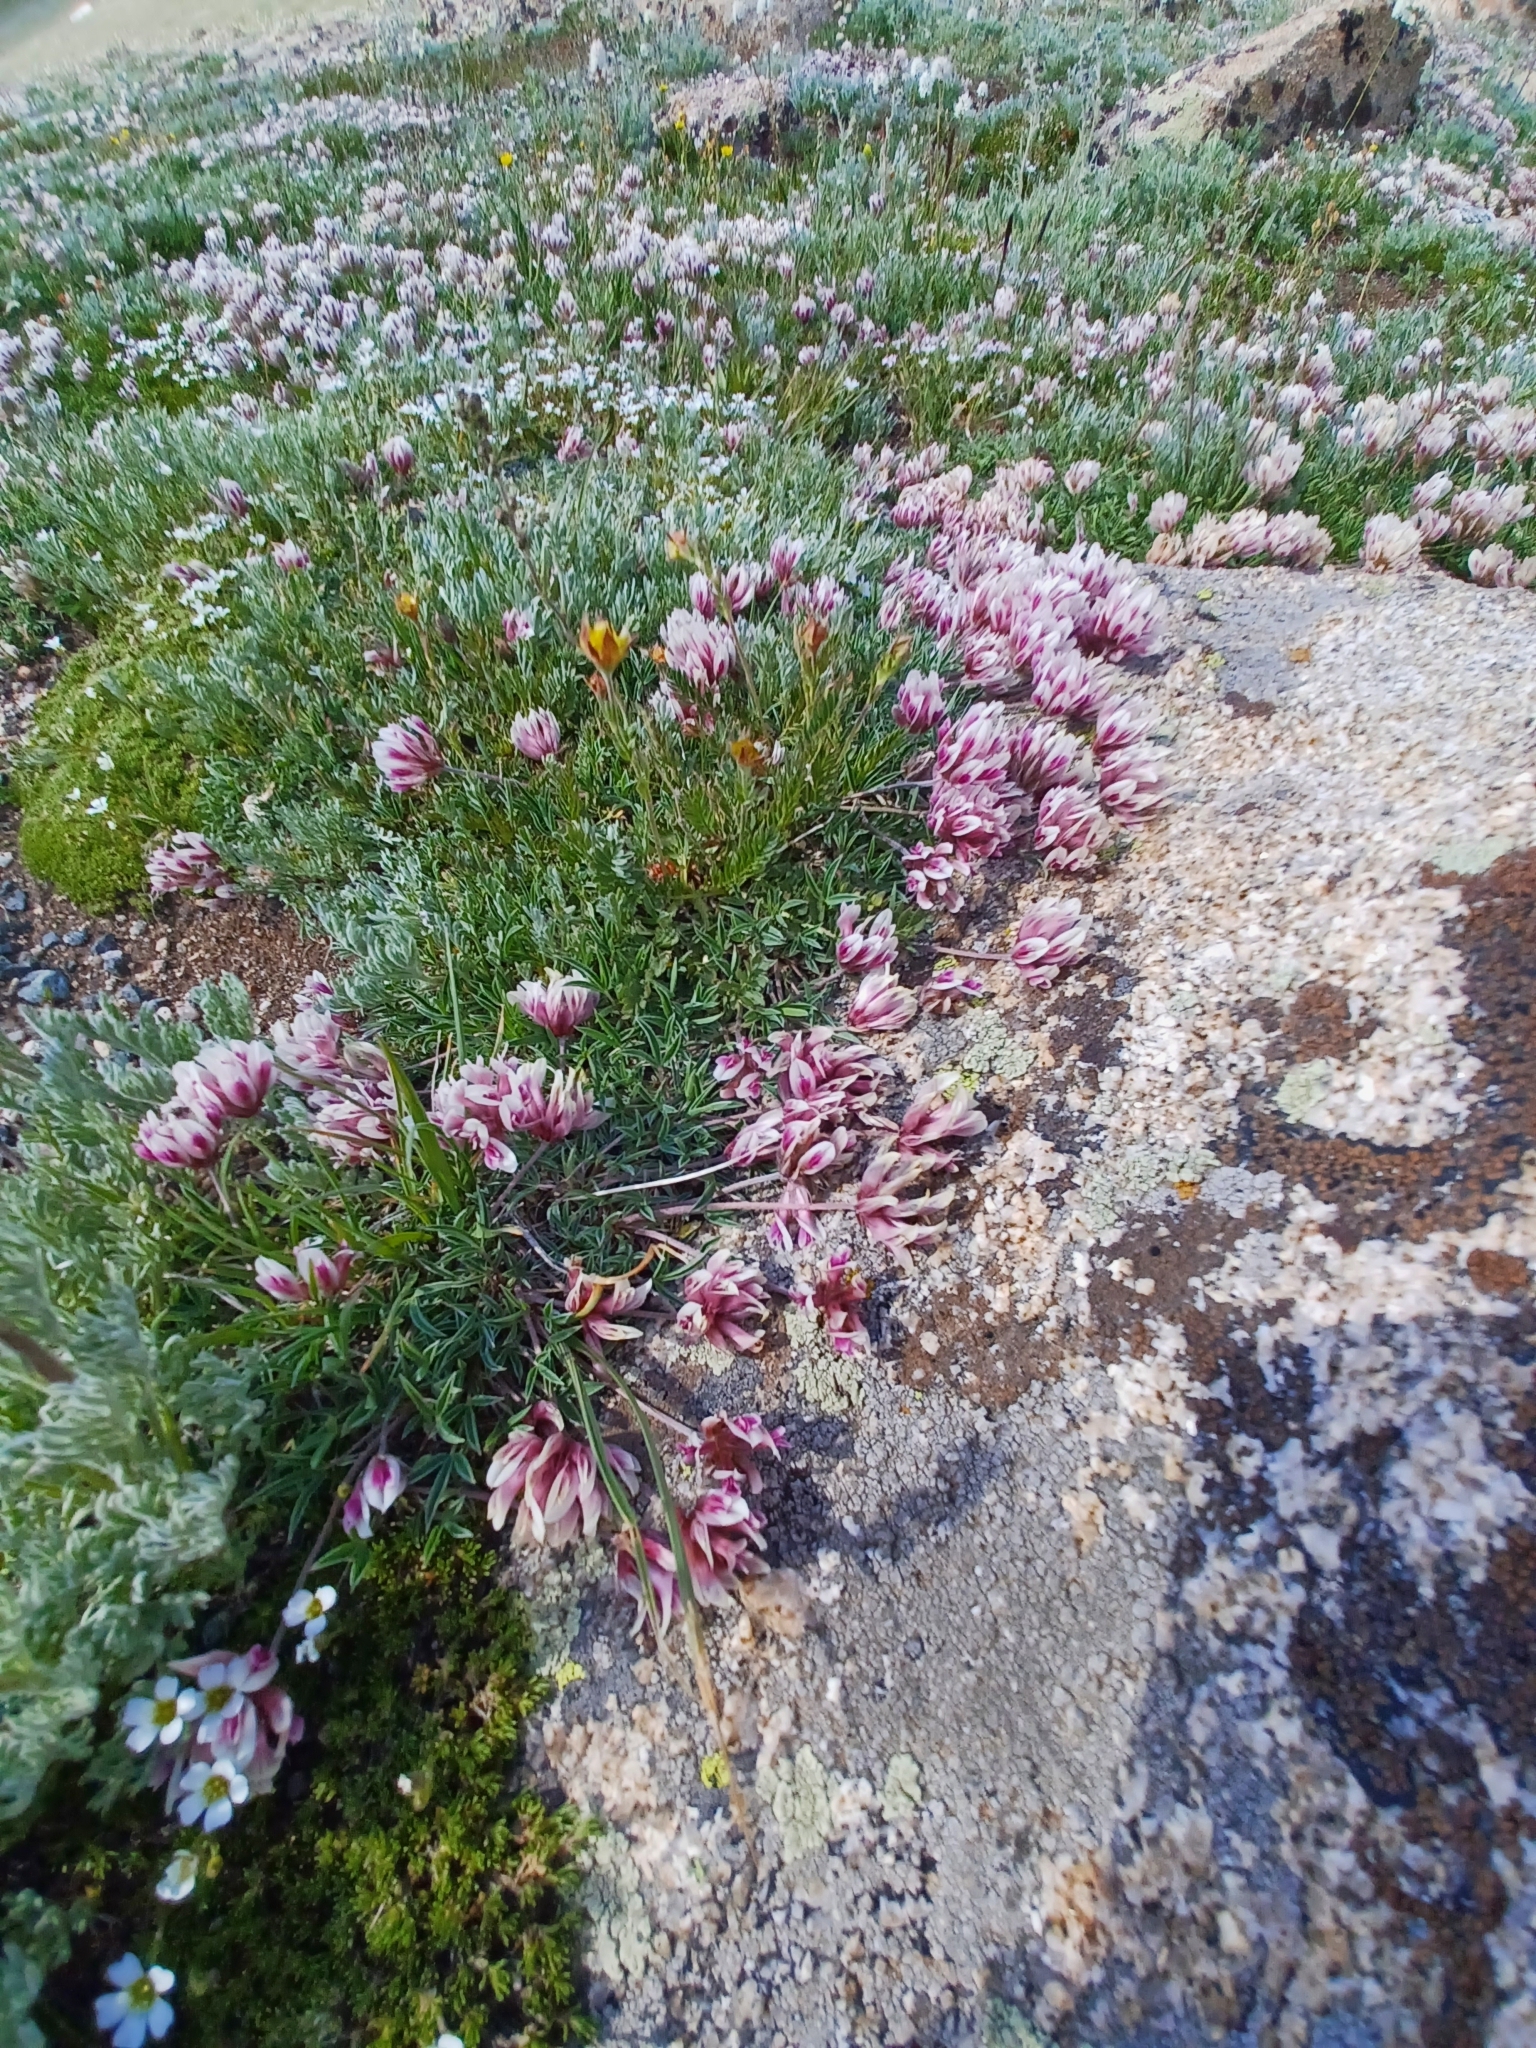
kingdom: Plantae
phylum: Tracheophyta
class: Magnoliopsida
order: Fabales
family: Fabaceae
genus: Trifolium
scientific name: Trifolium dasyphyllum
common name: Whip-root clover
